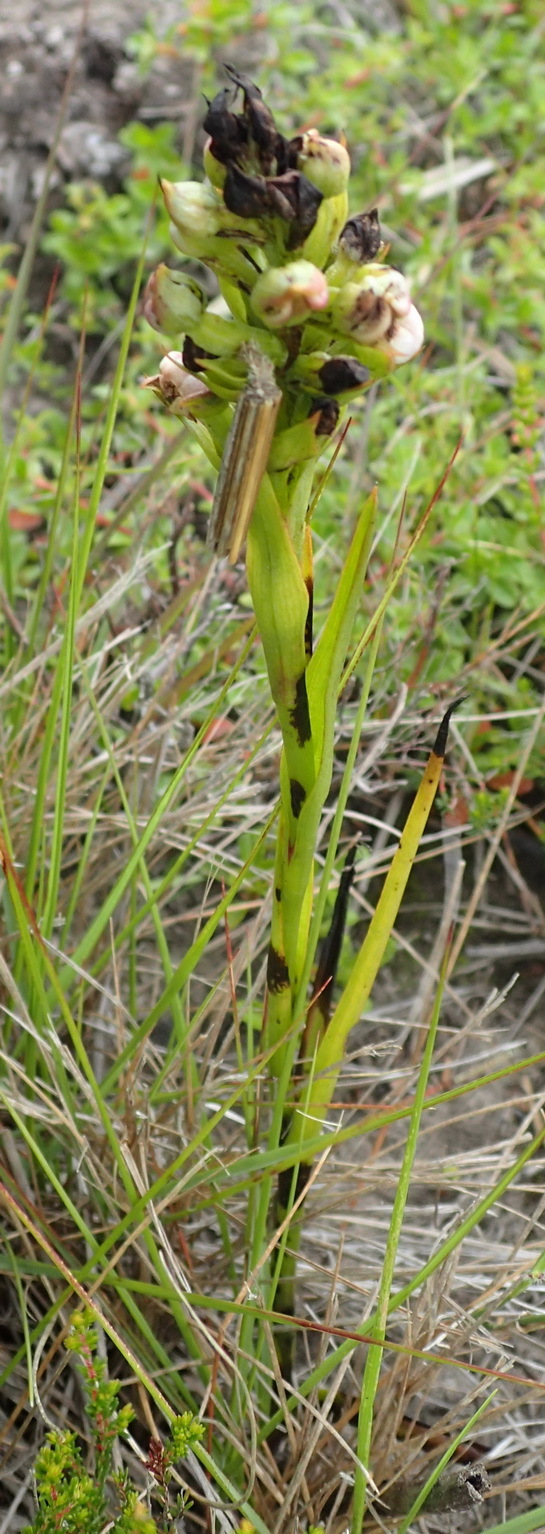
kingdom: Plantae
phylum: Tracheophyta
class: Liliopsida
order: Asparagales
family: Orchidaceae
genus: Evotella
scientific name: Evotella carnosa
